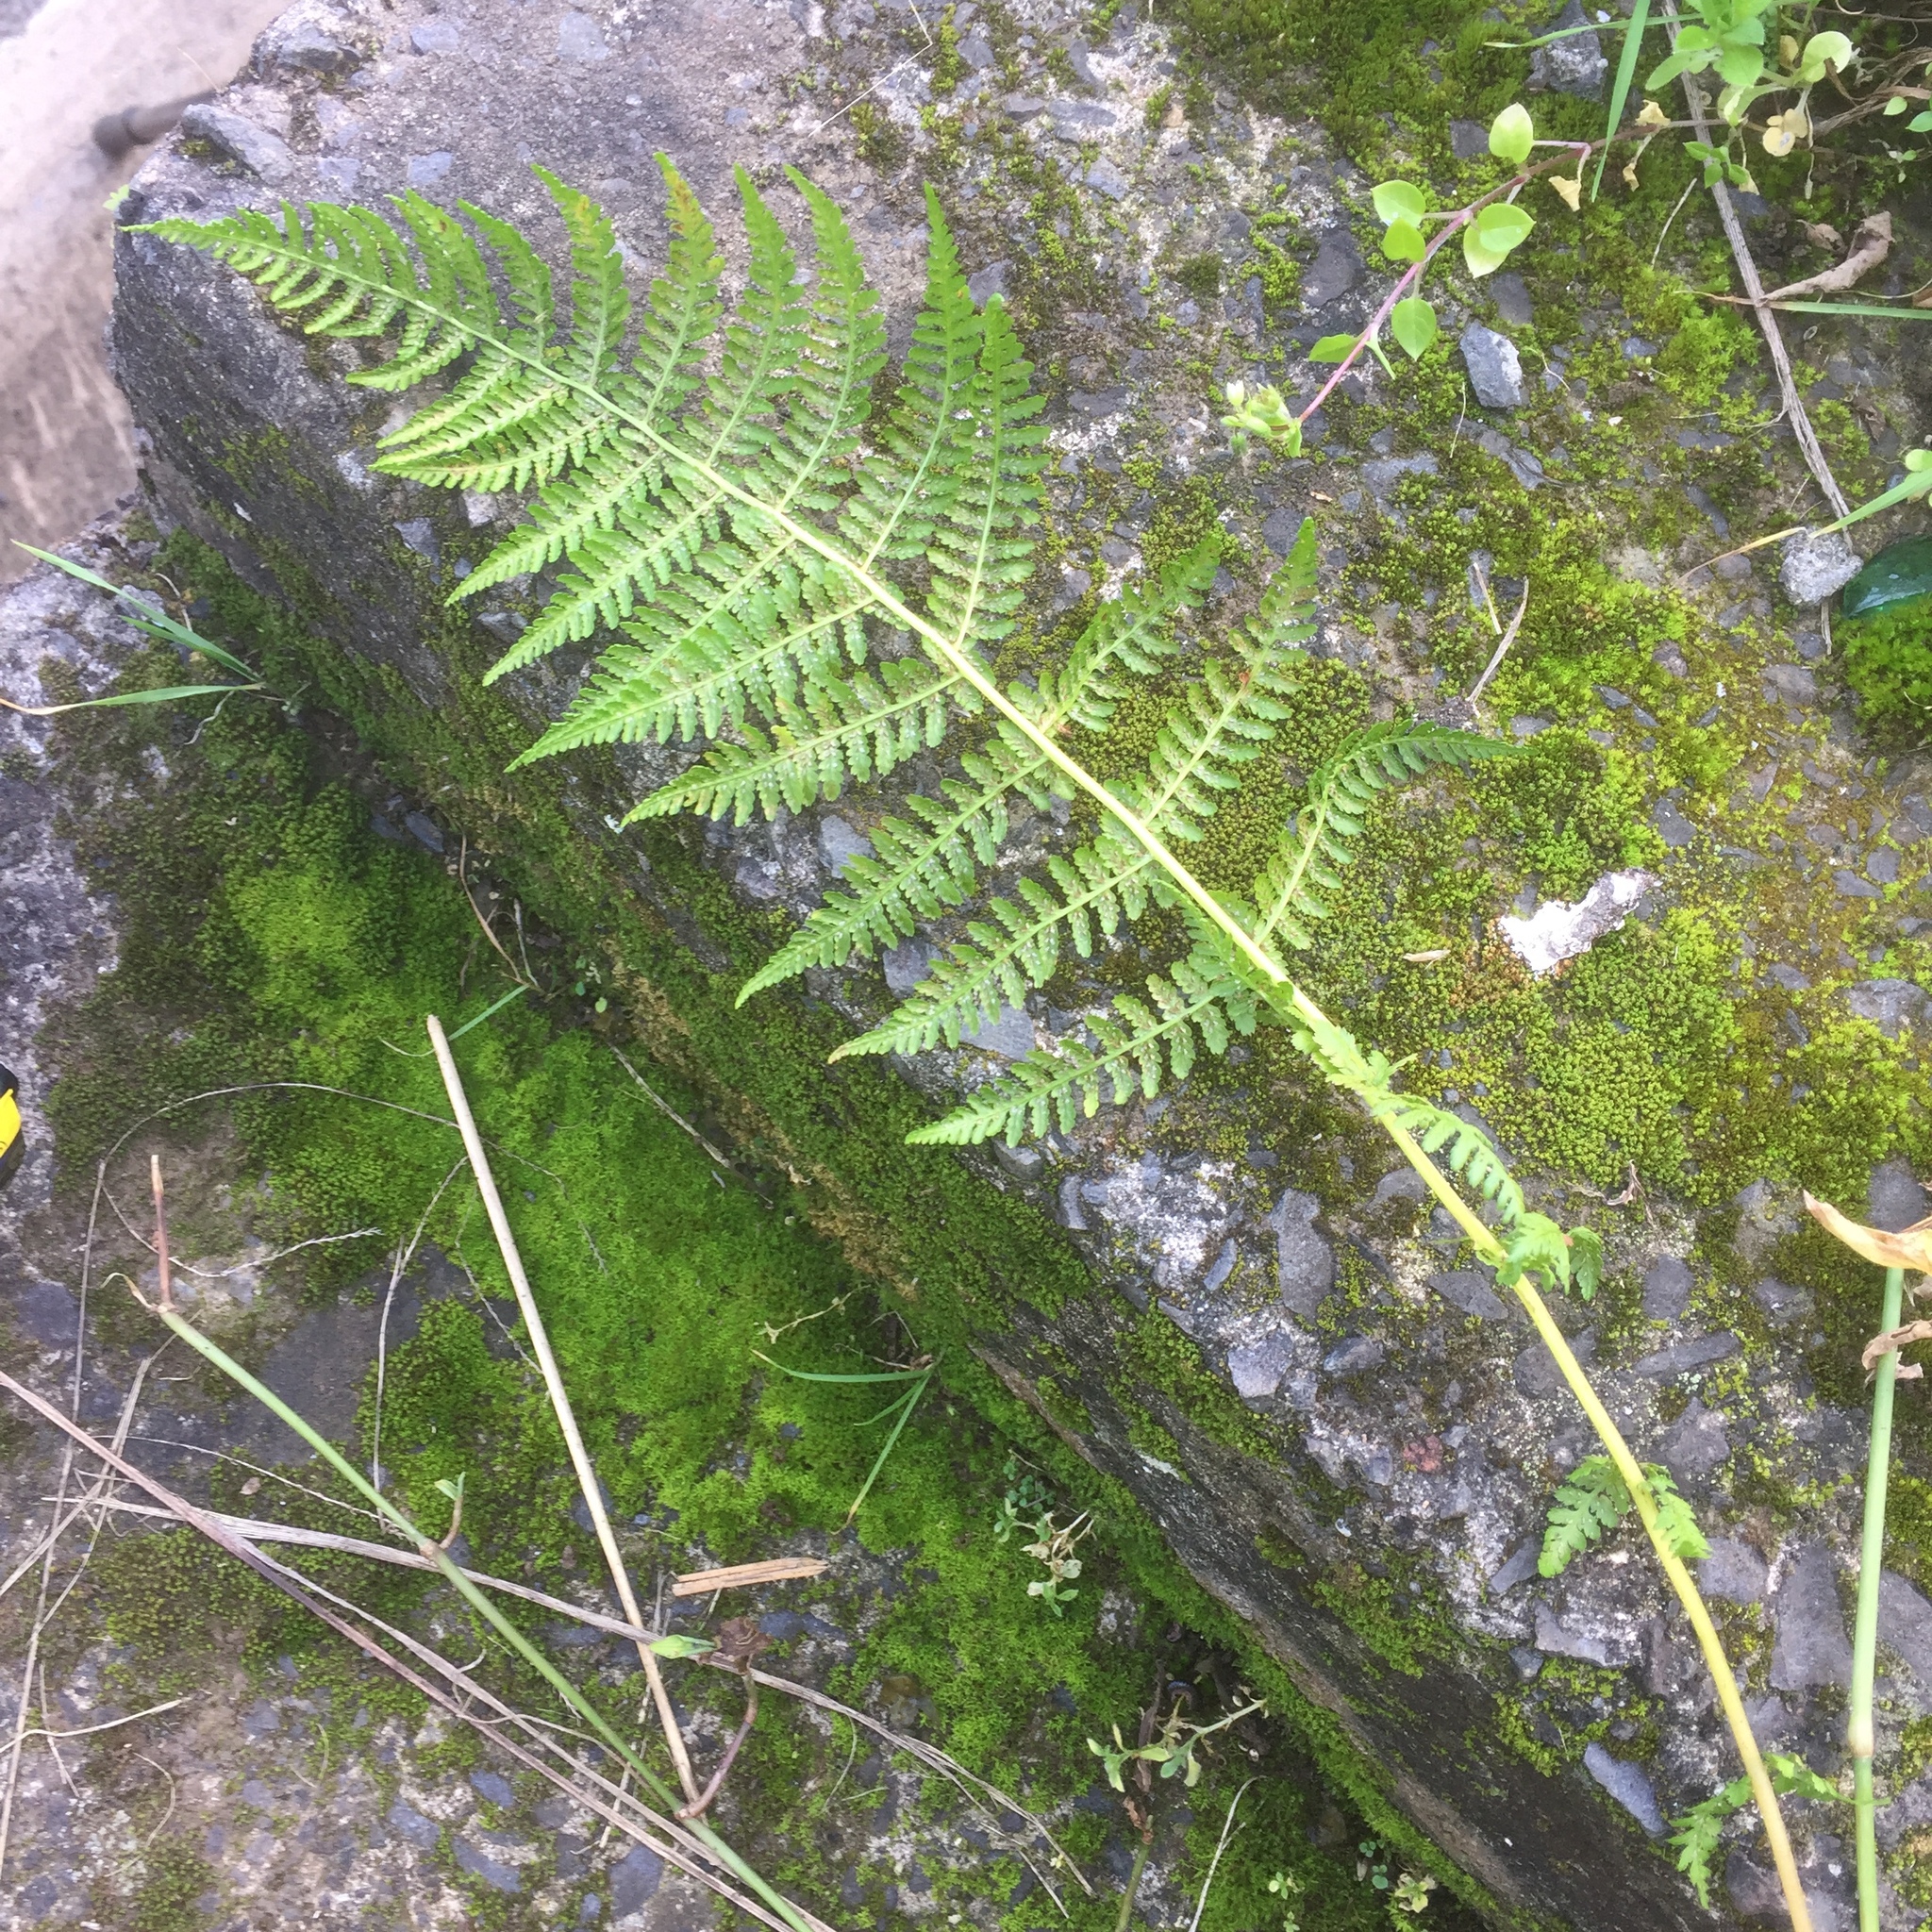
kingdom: Plantae
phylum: Tracheophyta
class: Polypodiopsida
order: Polypodiales
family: Athyriaceae
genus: Athyrium
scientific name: Athyrium filix-femina
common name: Lady fern
